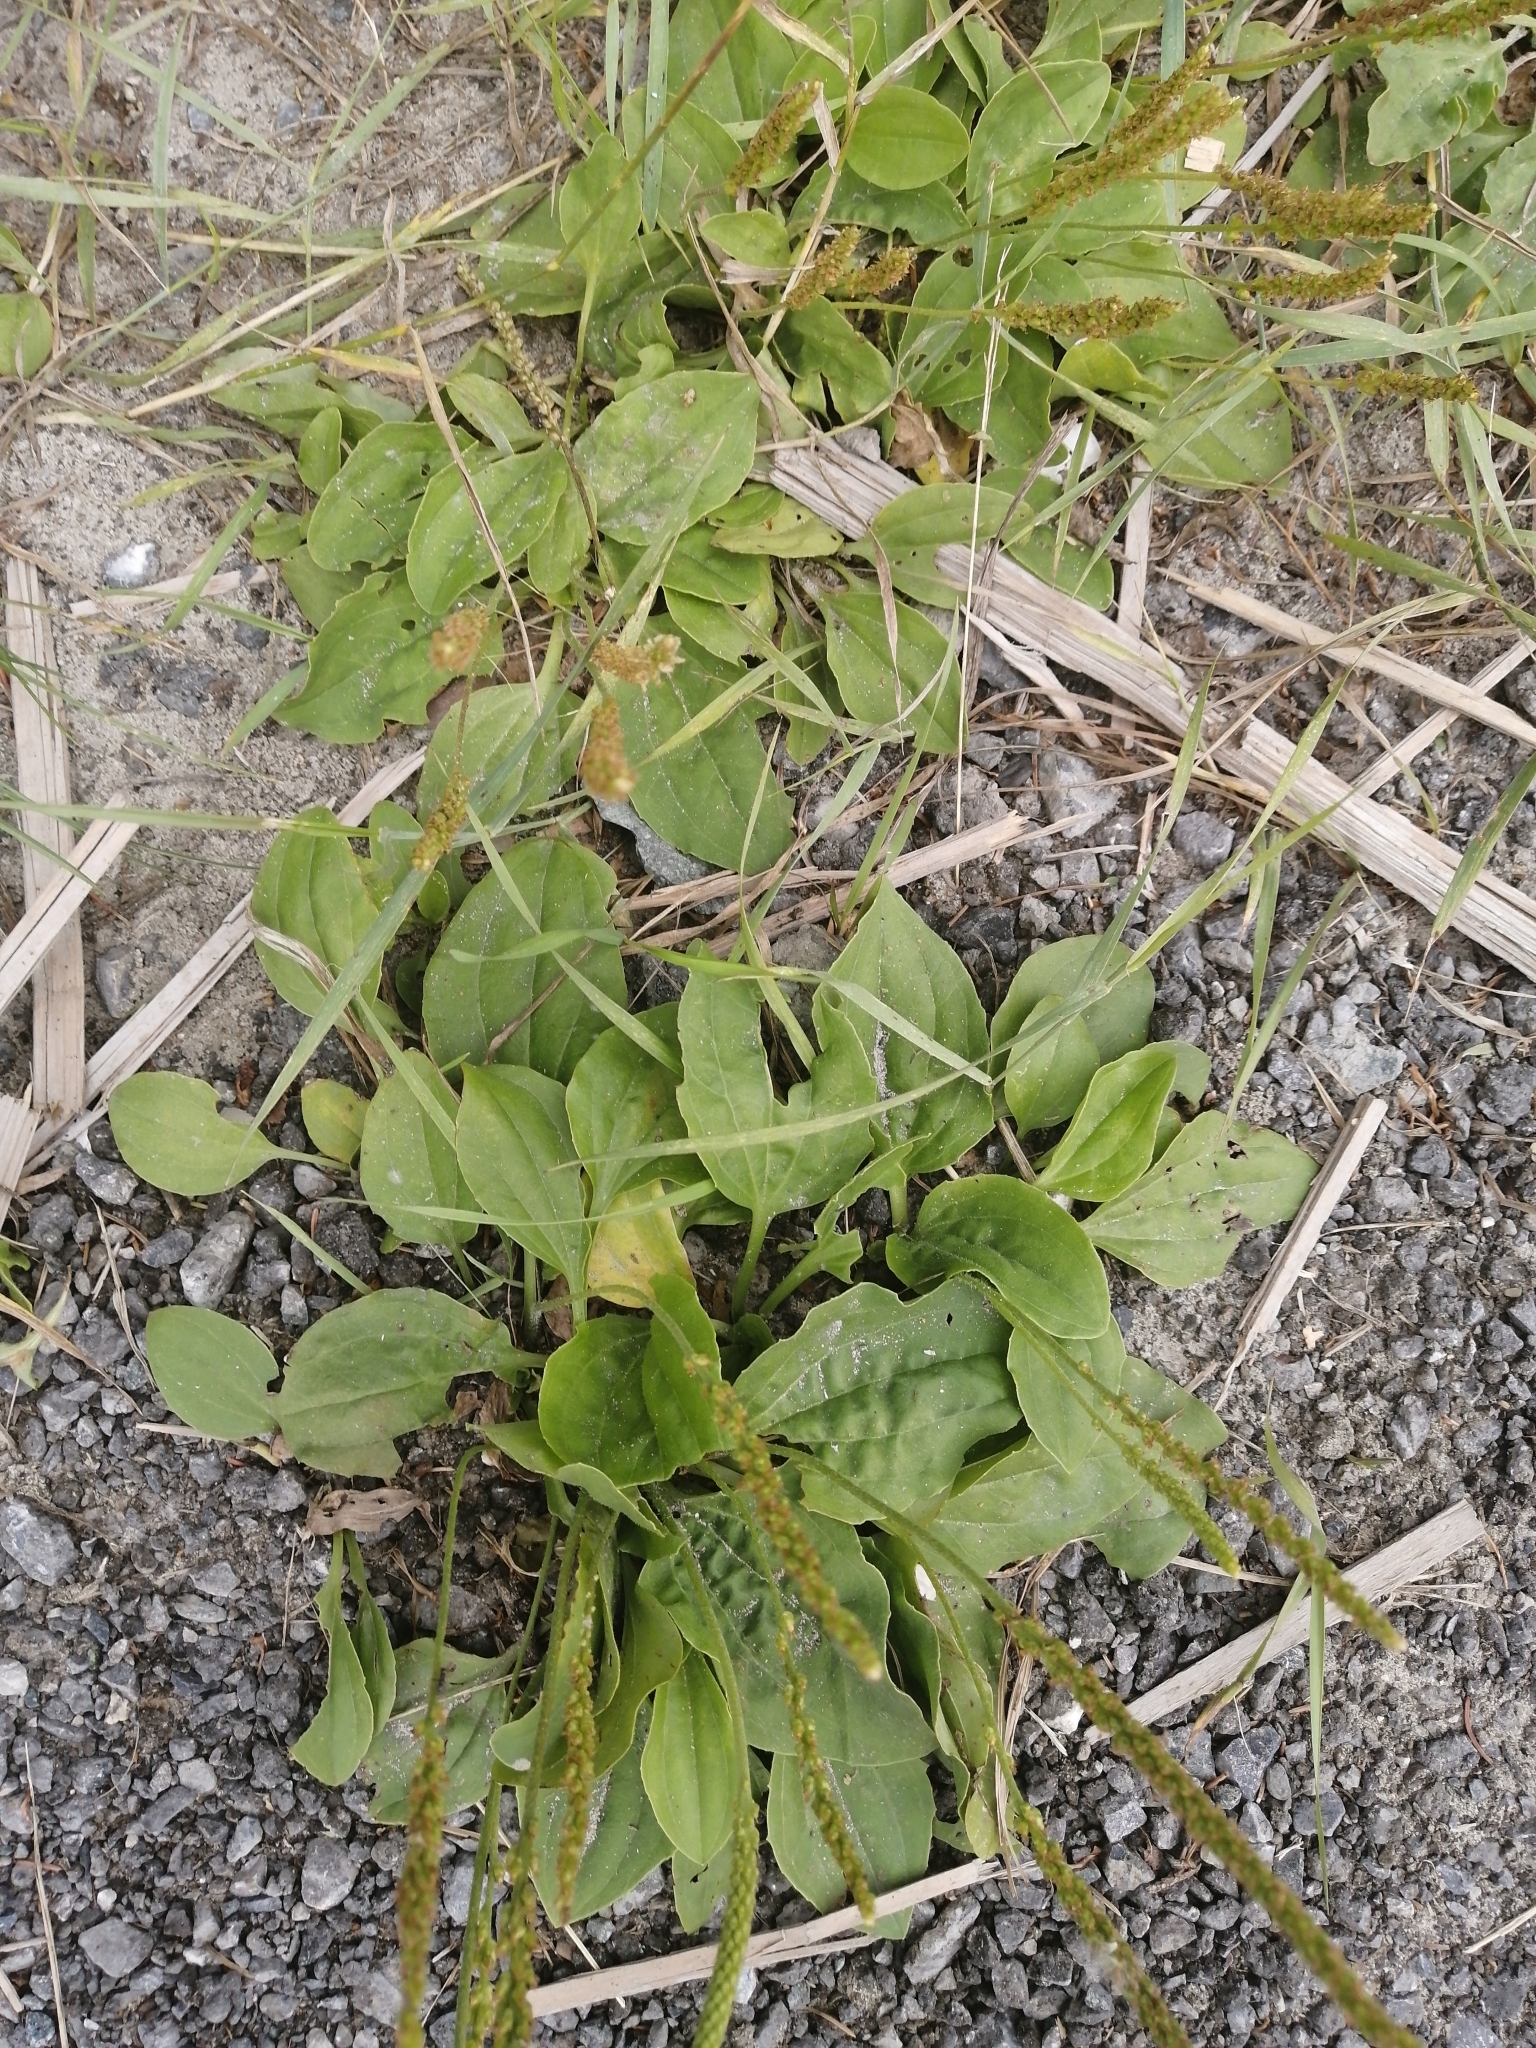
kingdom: Plantae
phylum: Tracheophyta
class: Magnoliopsida
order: Lamiales
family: Plantaginaceae
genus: Plantago
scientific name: Plantago major
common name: Common plantain
